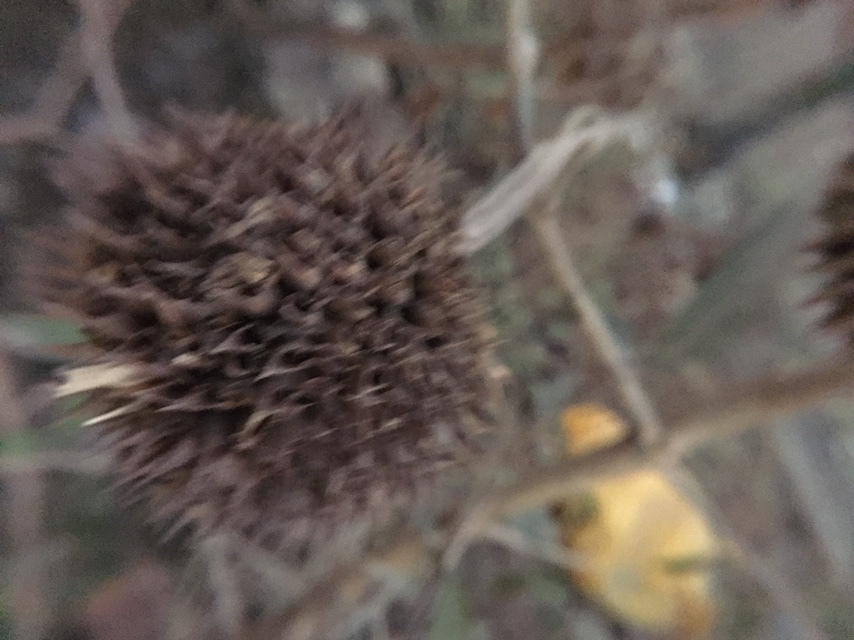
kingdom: Plantae
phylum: Tracheophyta
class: Magnoliopsida
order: Lamiales
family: Lamiaceae
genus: Leonotis
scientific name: Leonotis nepetifolia
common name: Christmas candlestick
